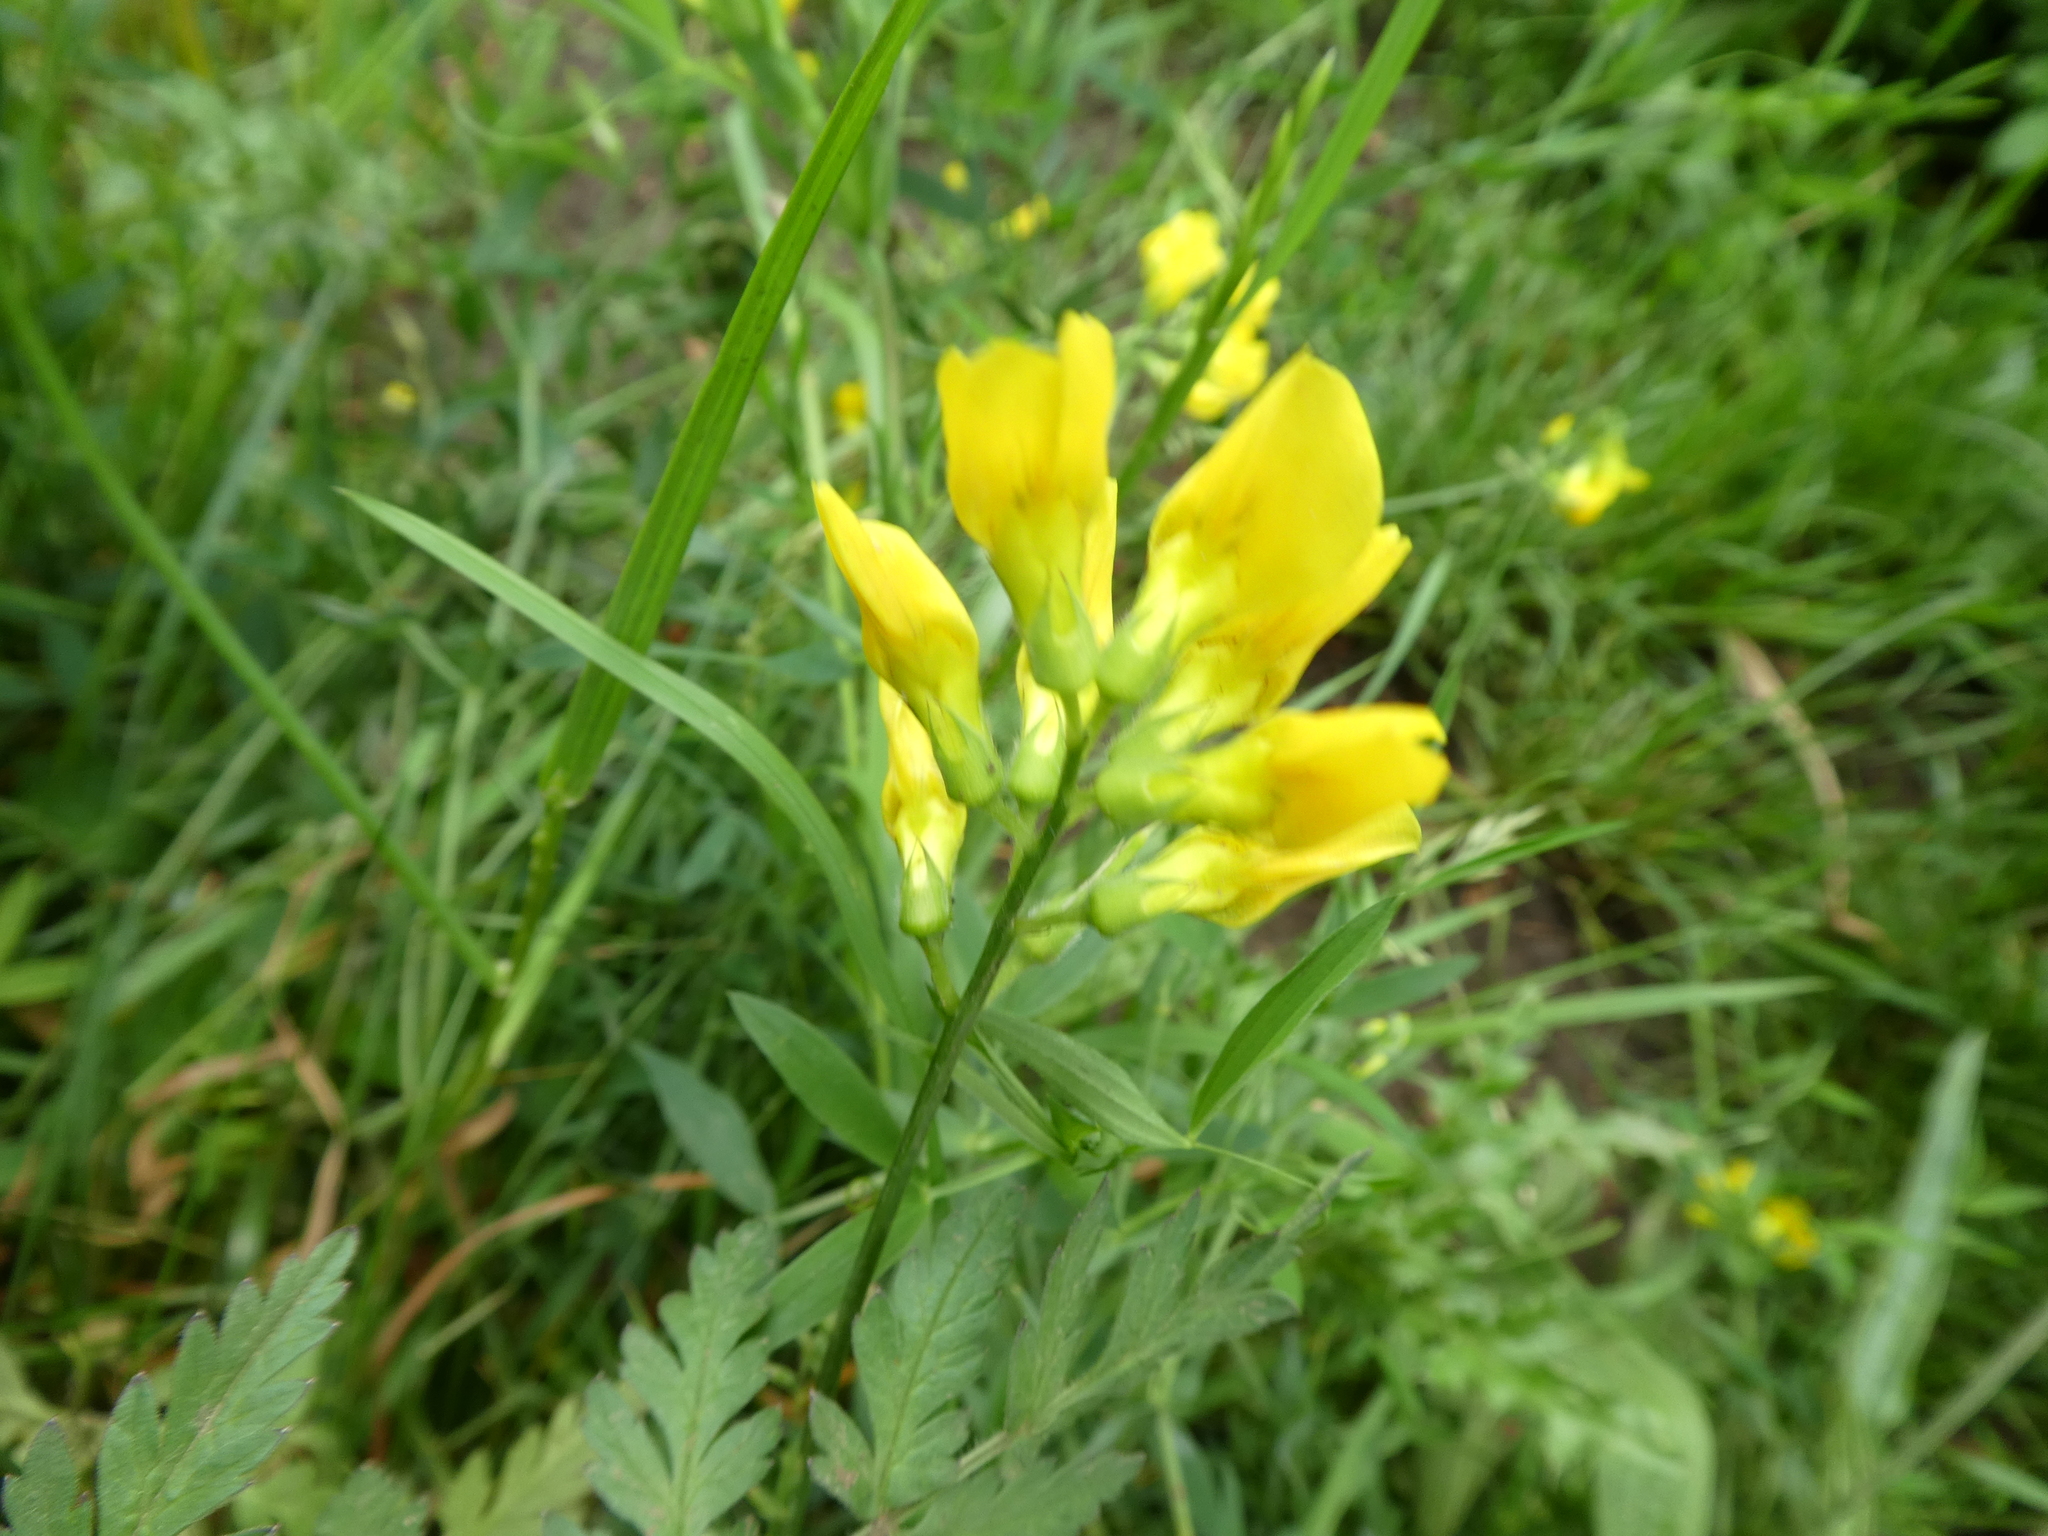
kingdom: Plantae
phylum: Tracheophyta
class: Magnoliopsida
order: Fabales
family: Fabaceae
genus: Lathyrus
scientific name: Lathyrus pratensis
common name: Meadow vetchling
